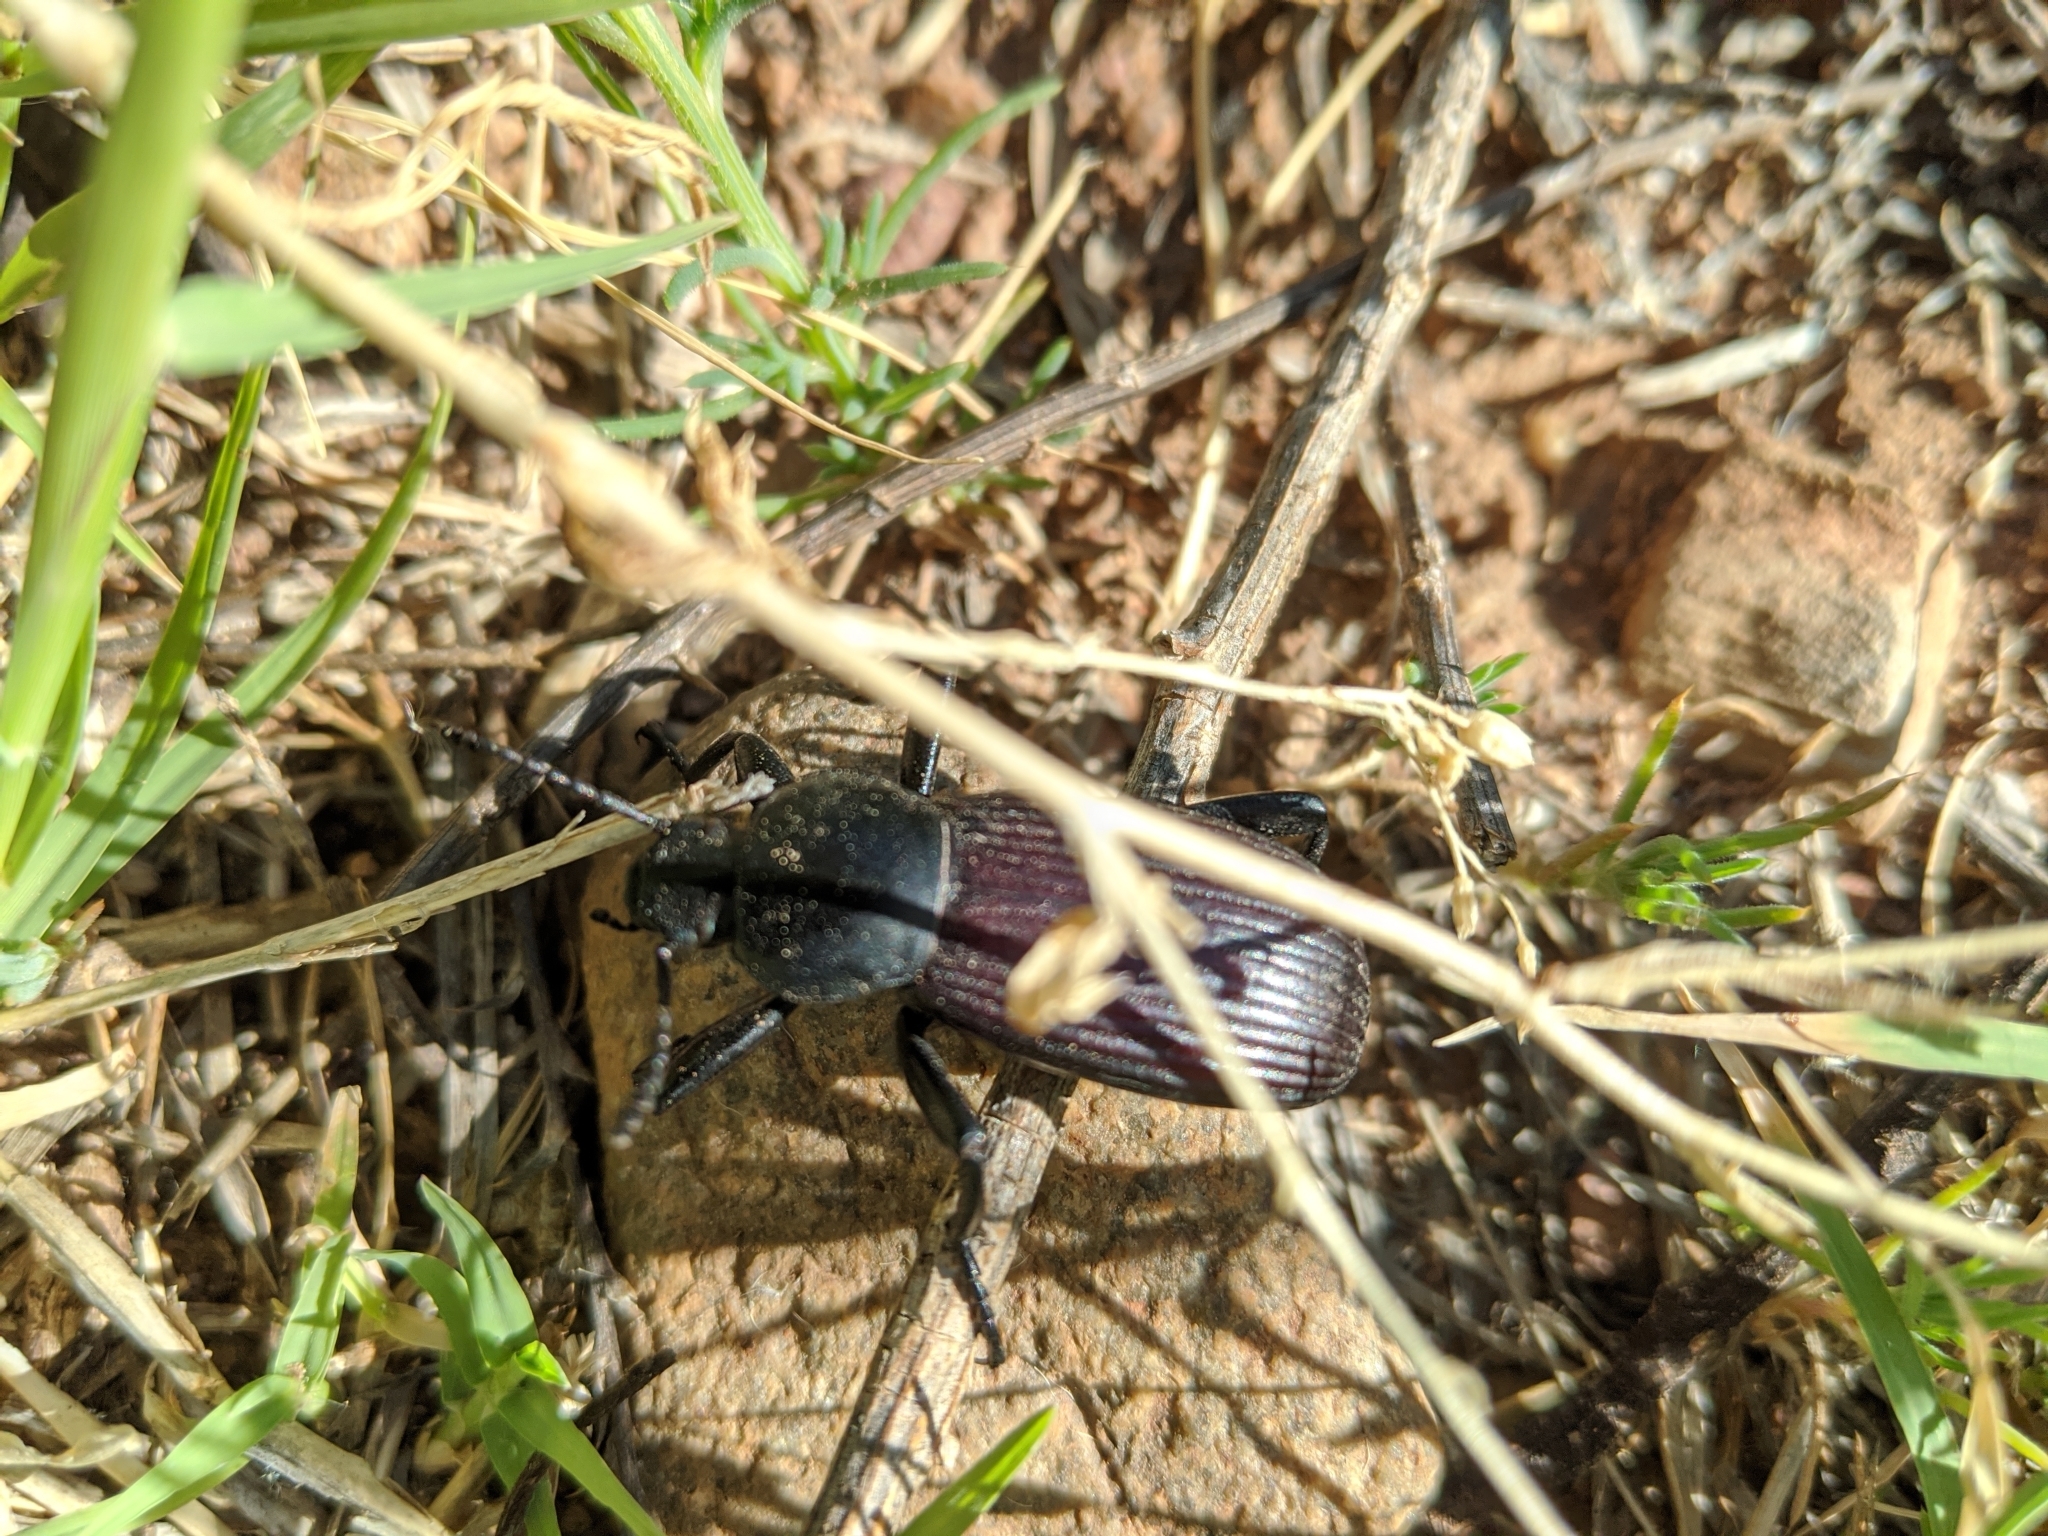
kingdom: Animalia
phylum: Arthropoda
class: Insecta
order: Coleoptera
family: Tenebrionidae
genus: Eleodes
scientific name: Eleodes obscura
